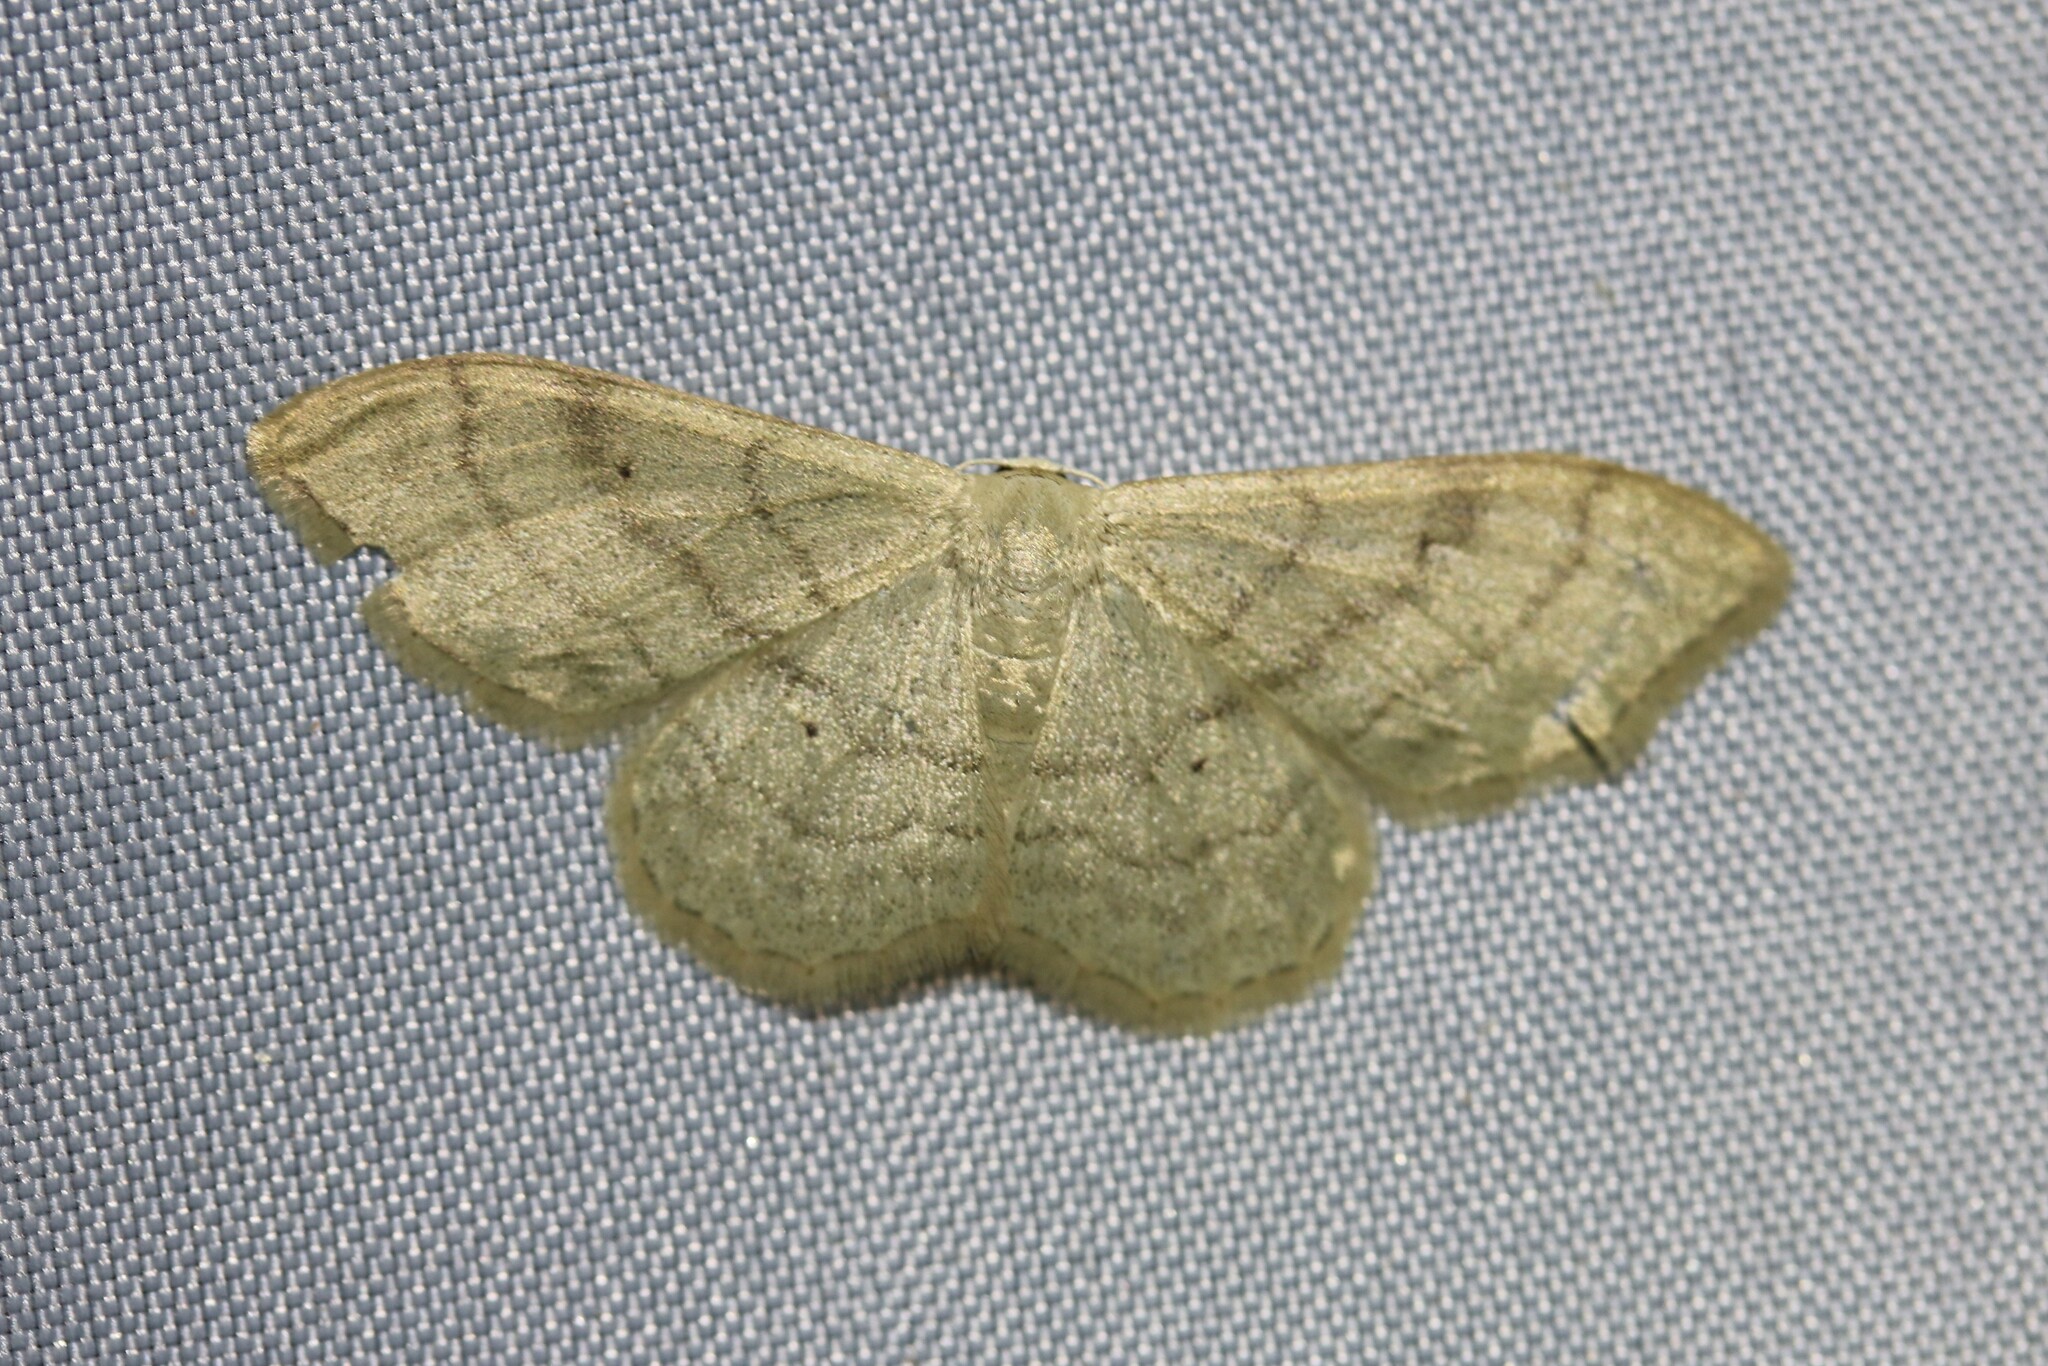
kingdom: Animalia
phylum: Arthropoda
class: Insecta
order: Lepidoptera
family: Geometridae
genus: Idaea
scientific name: Idaea straminata
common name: Plain wave
